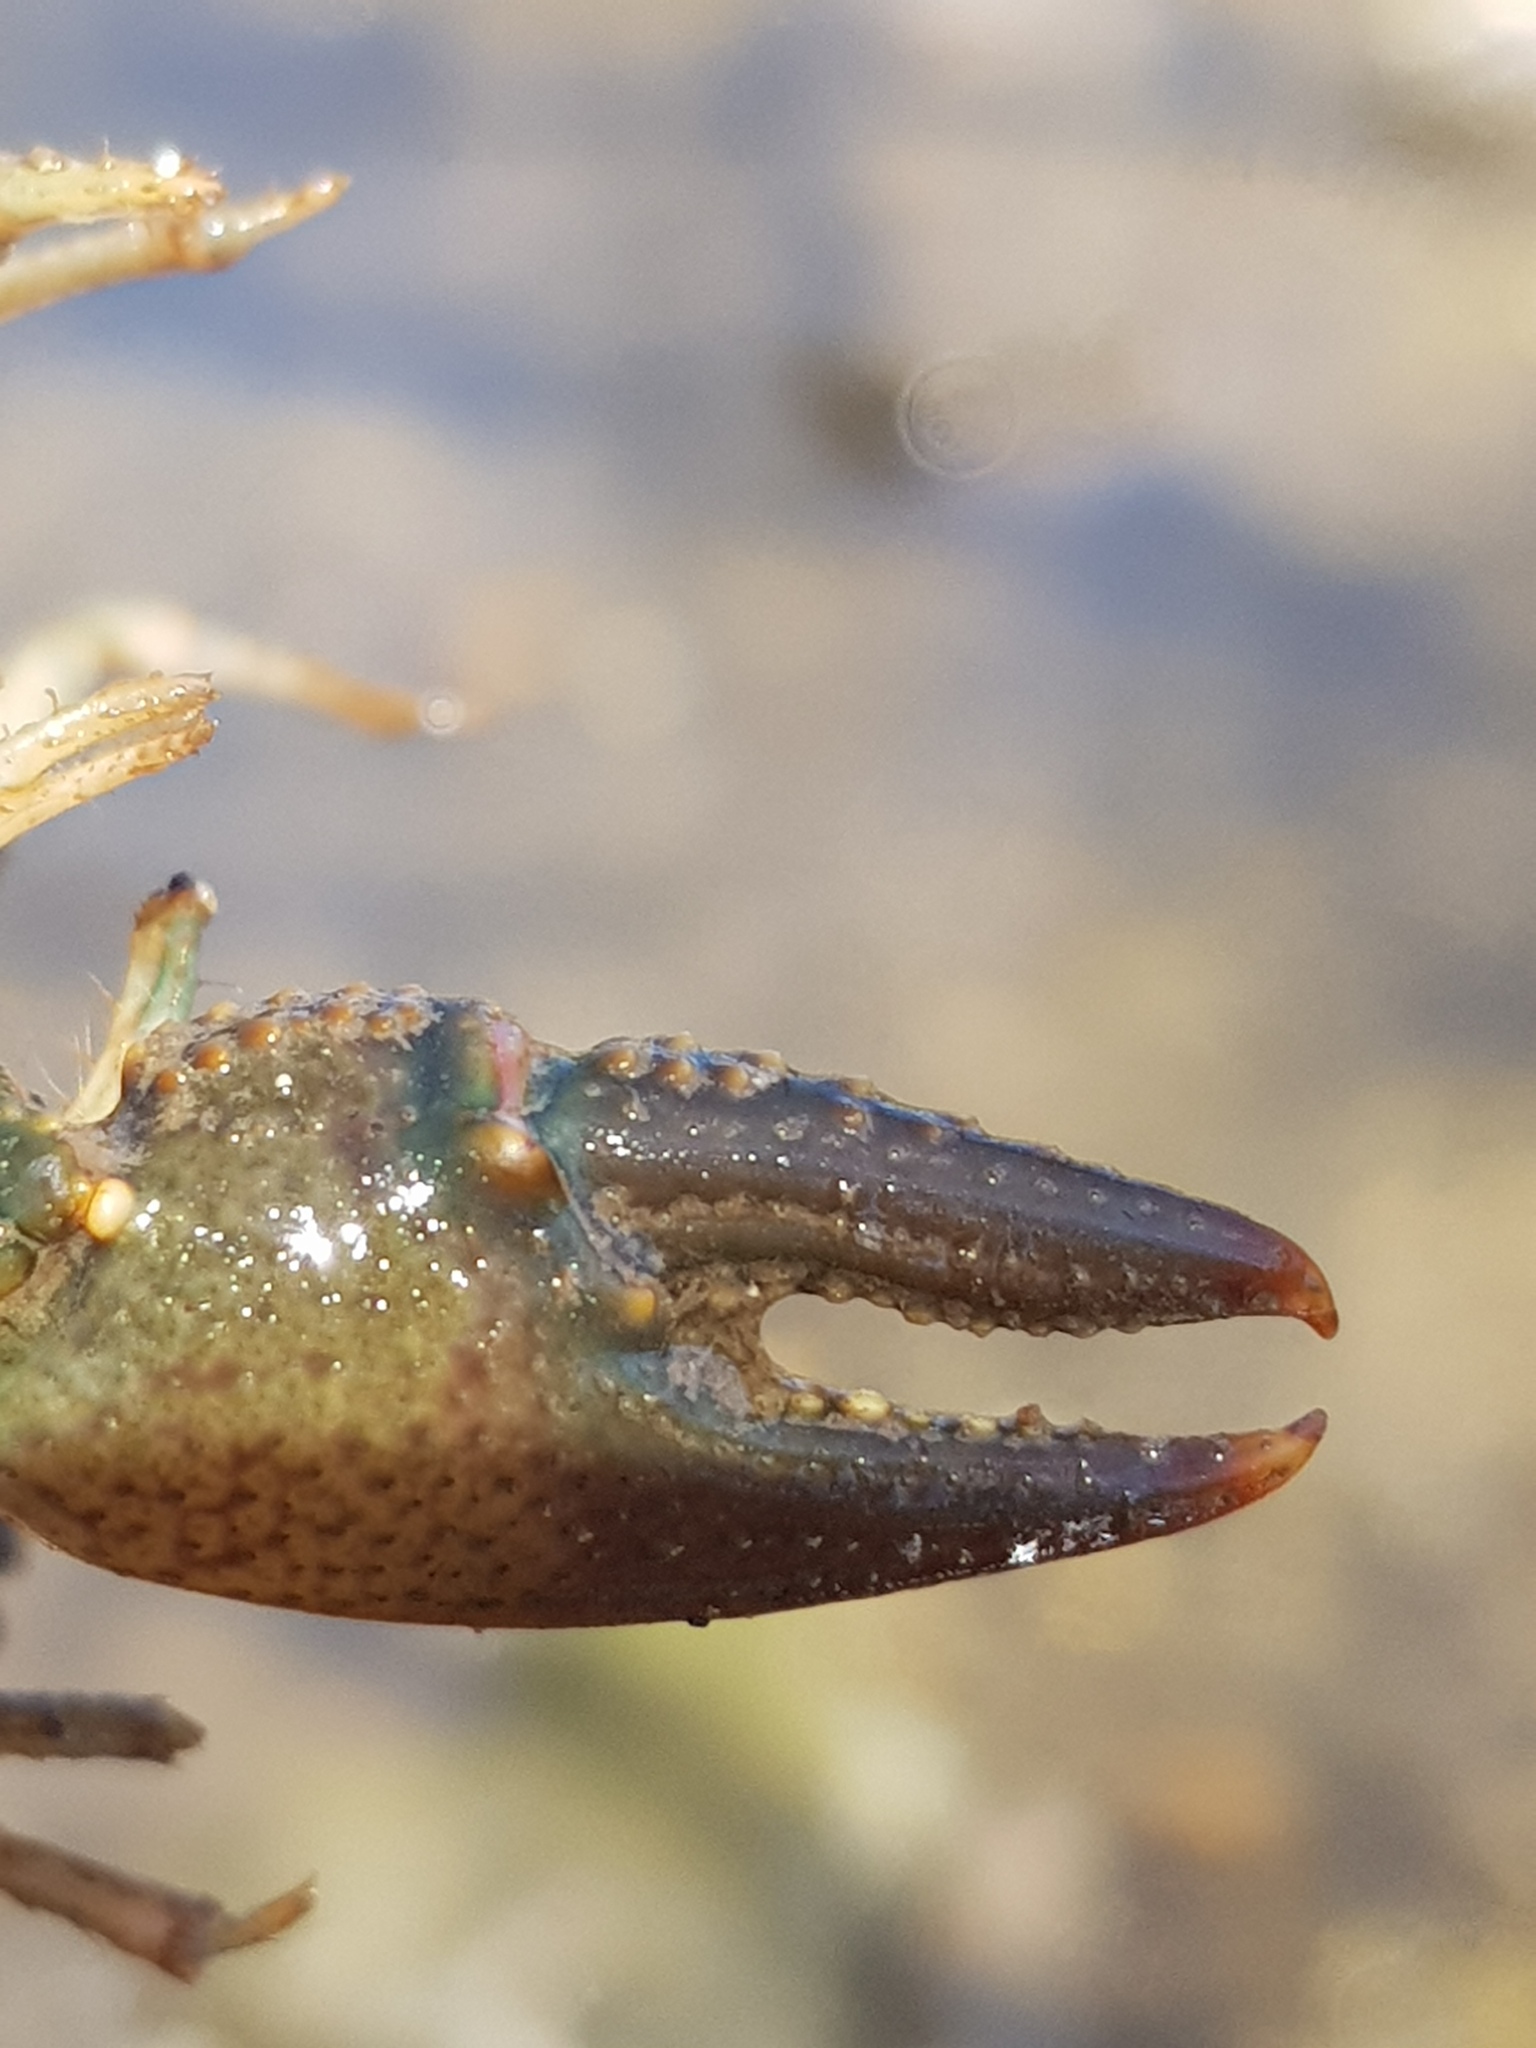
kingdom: Animalia
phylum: Arthropoda
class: Malacostraca
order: Decapoda
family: Cambaridae
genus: Faxonius
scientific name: Faxonius virilis
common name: Virile crayfish
